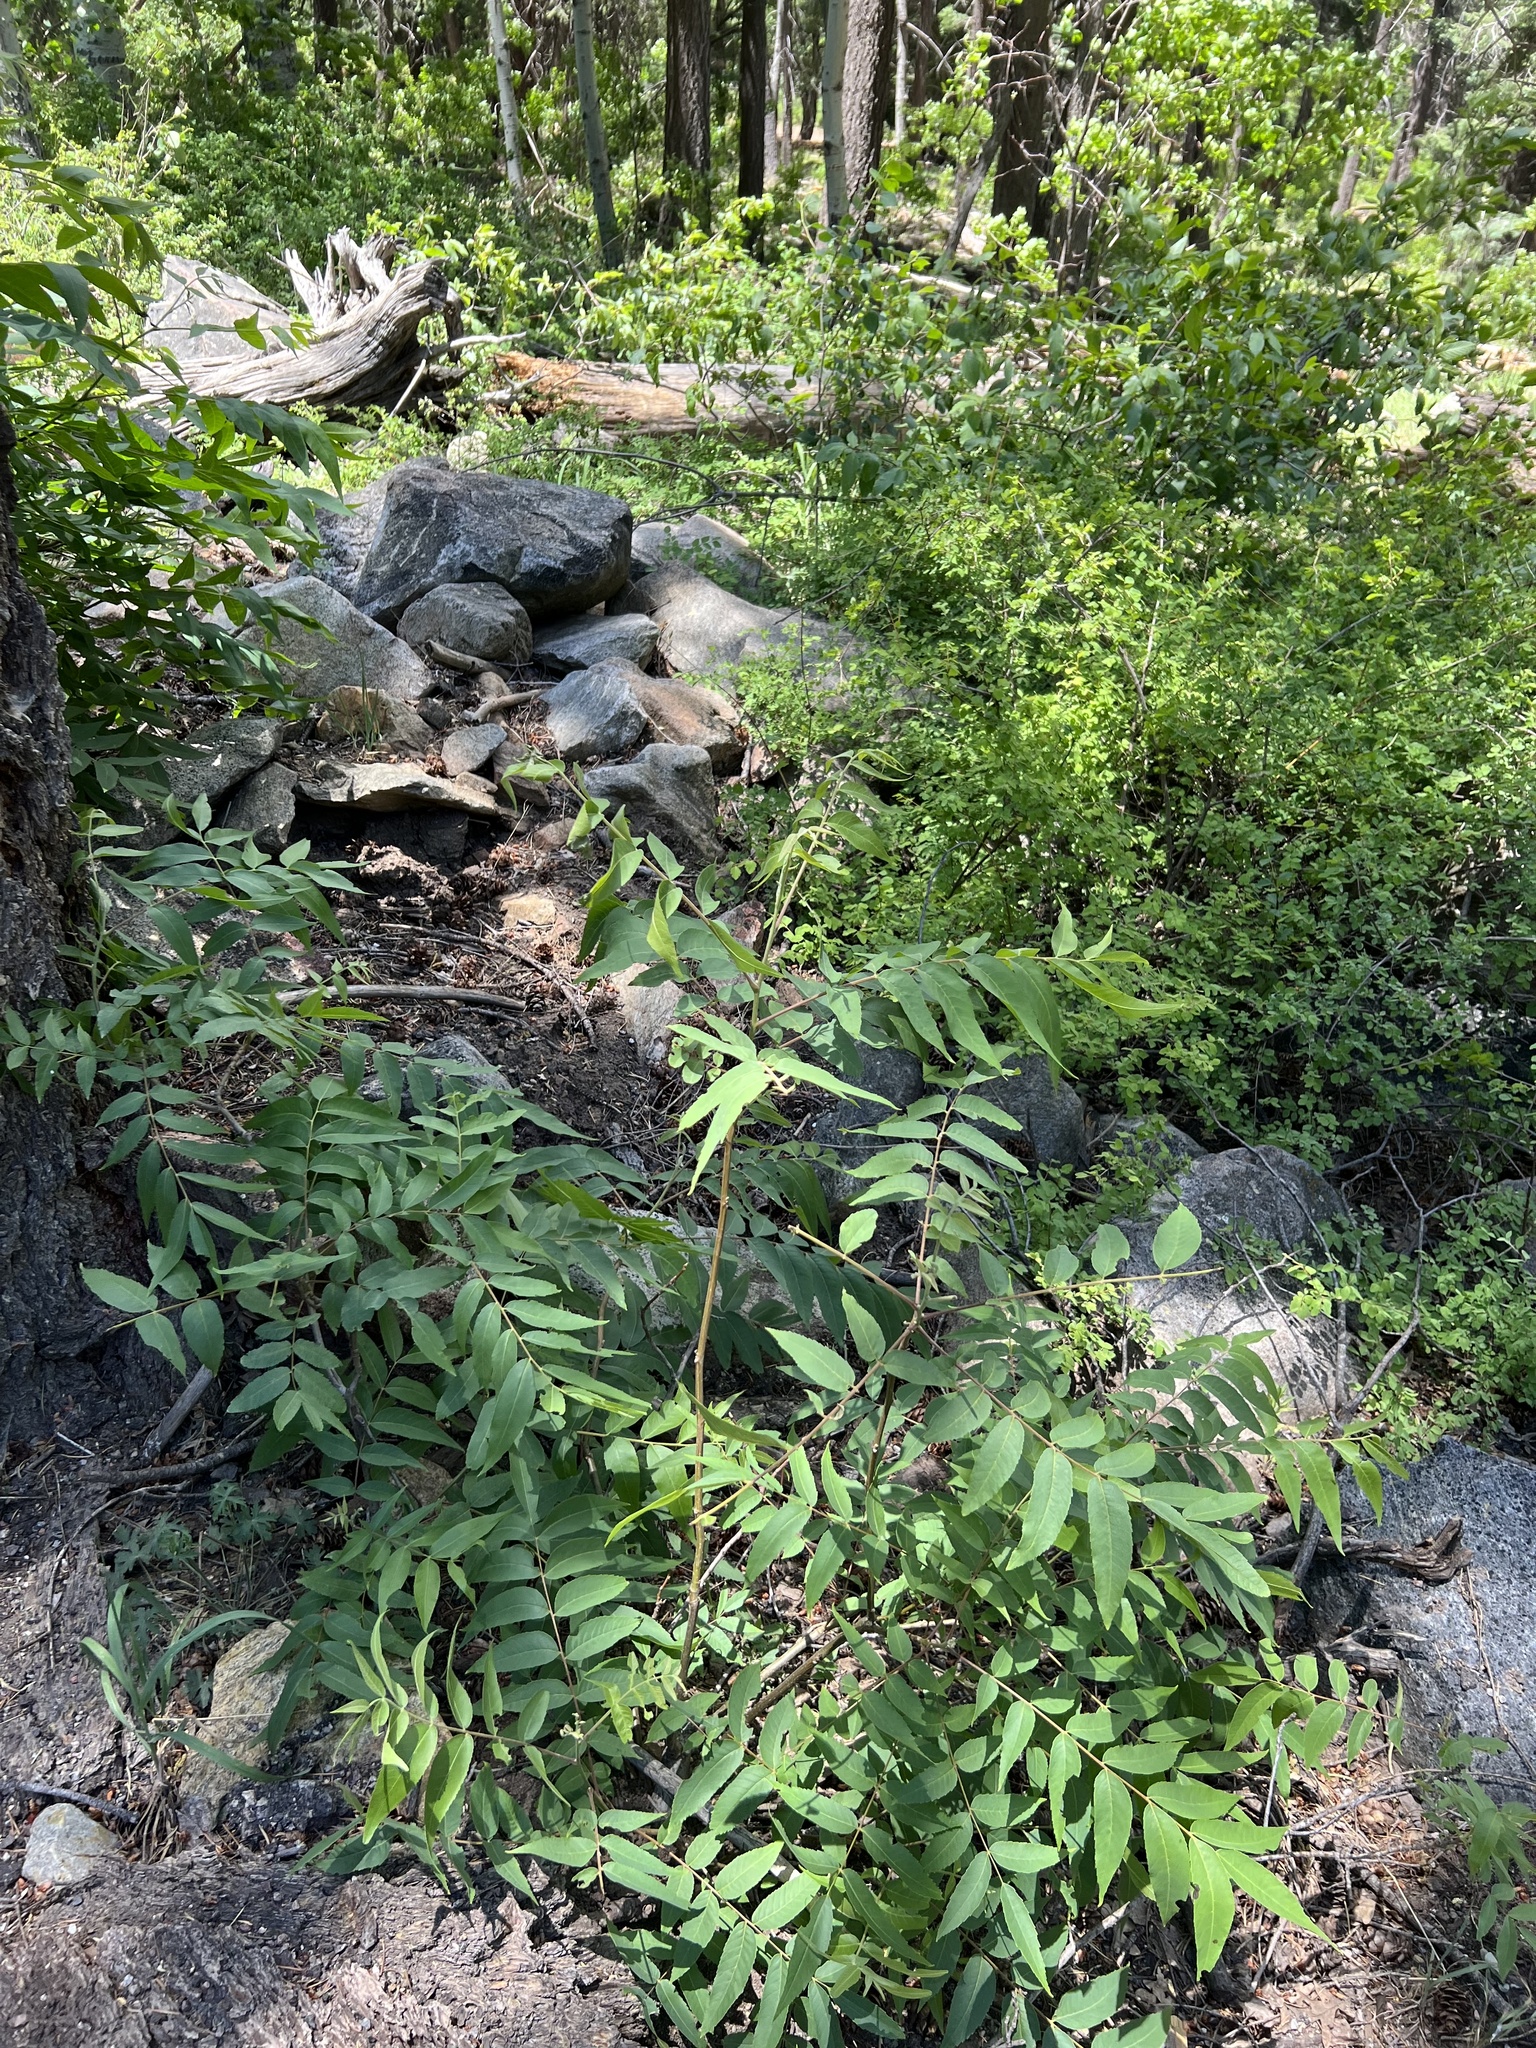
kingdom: Plantae
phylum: Tracheophyta
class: Magnoliopsida
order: Fagales
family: Juglandaceae
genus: Juglans
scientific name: Juglans major
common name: Arizona walnut
